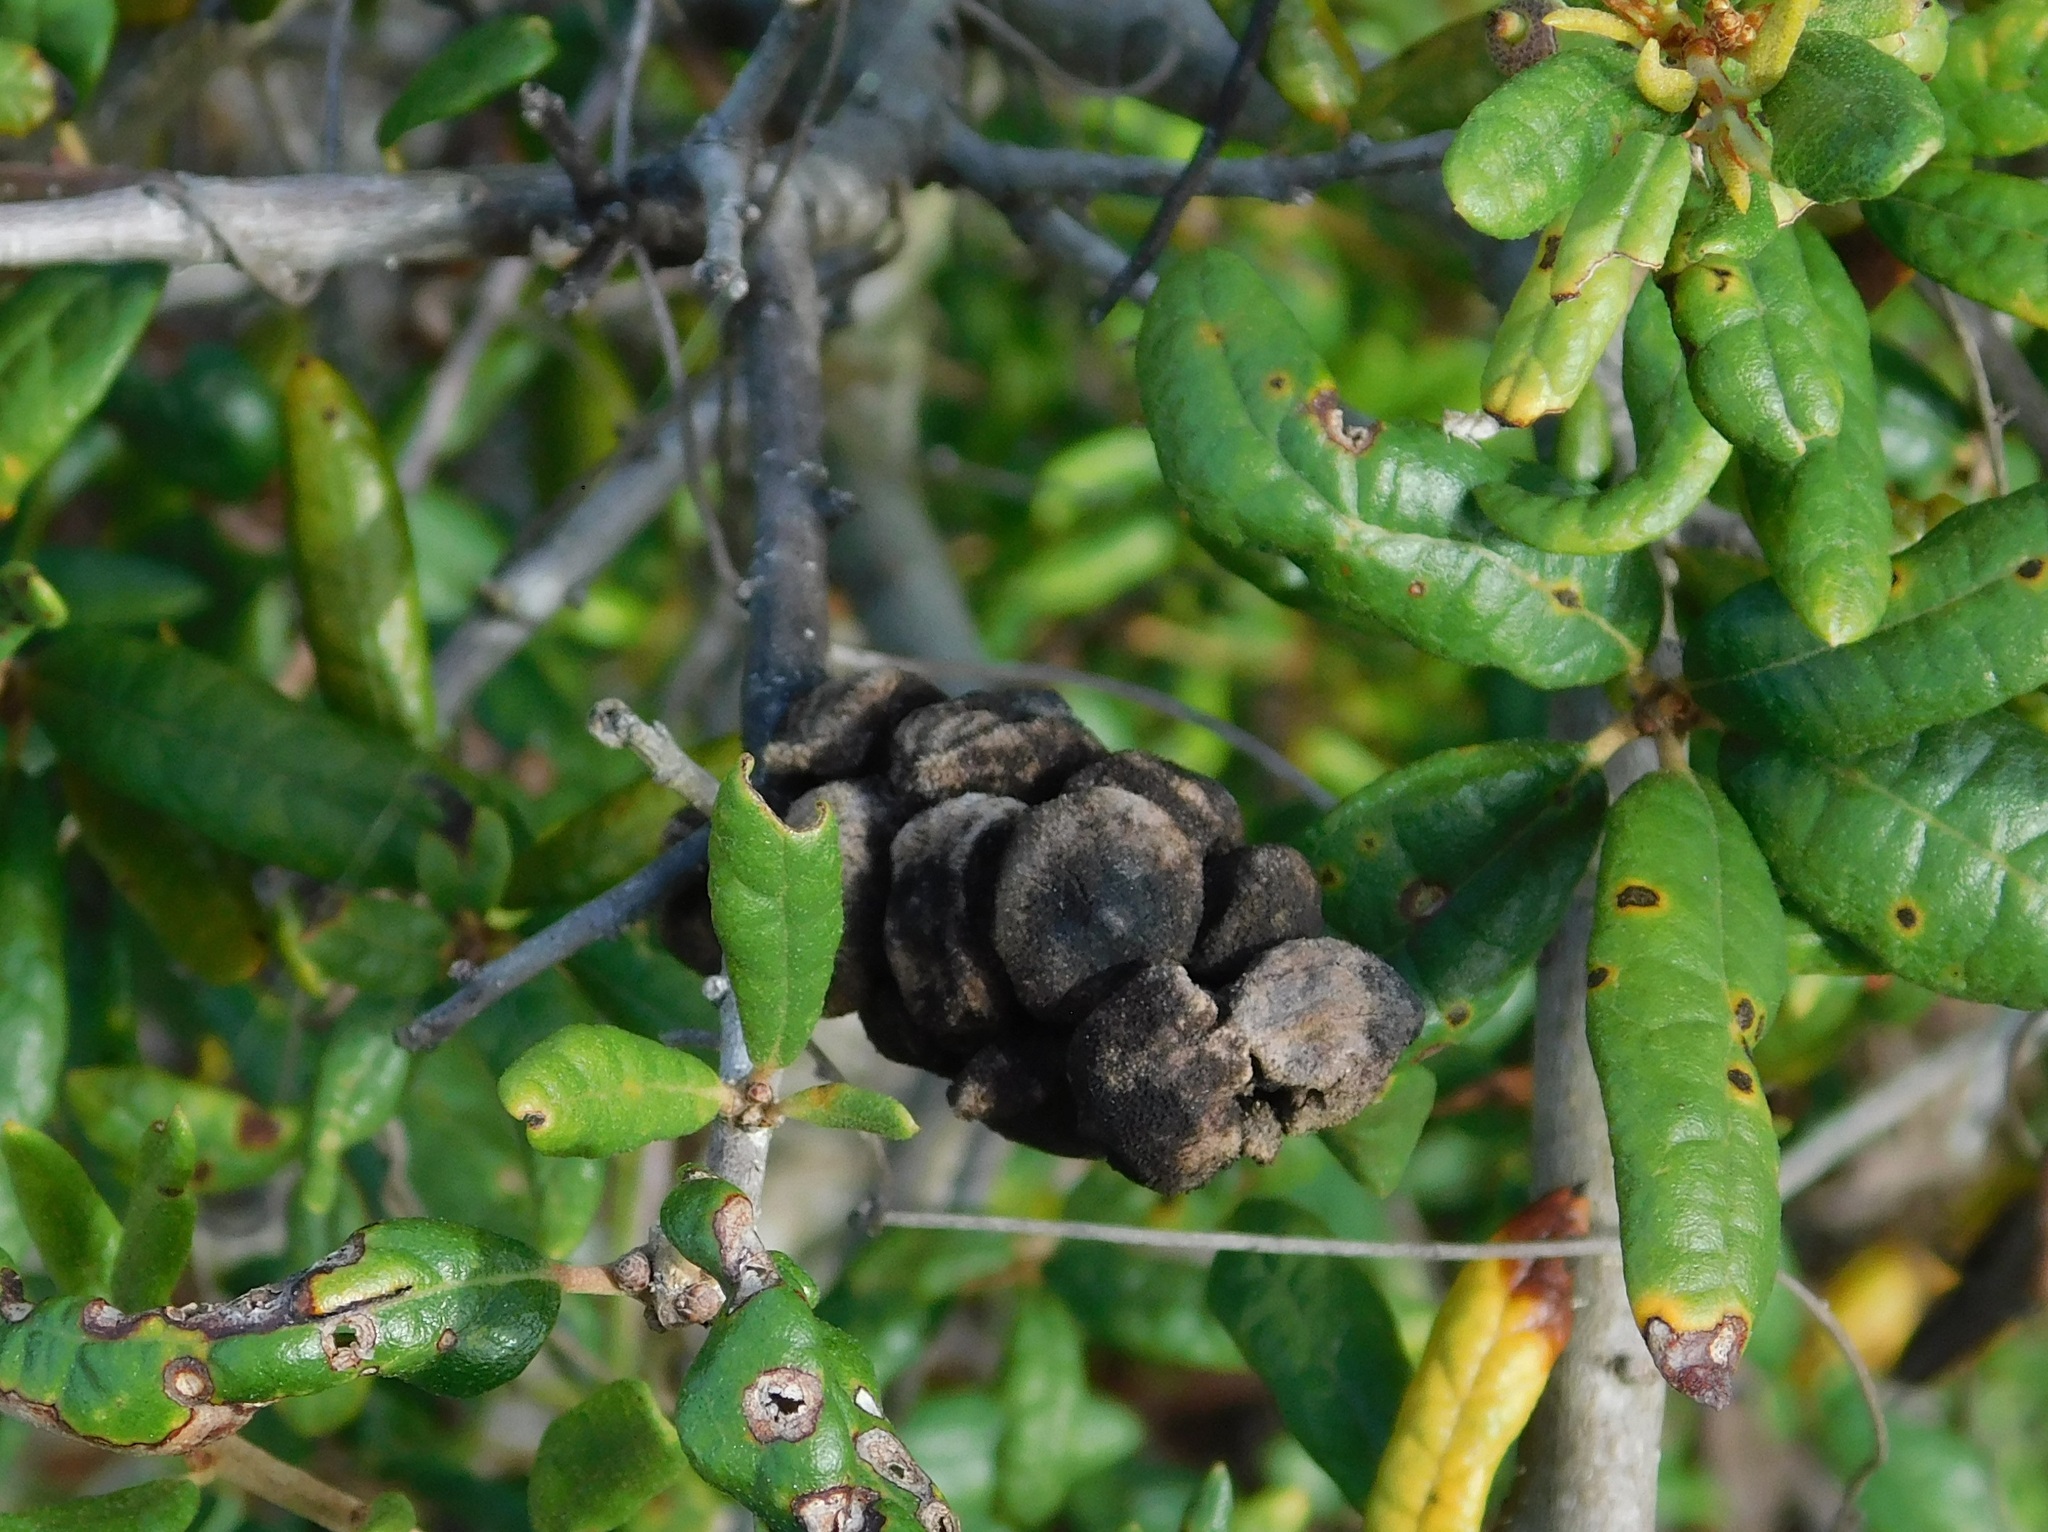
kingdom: Animalia
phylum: Arthropoda
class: Insecta
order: Hymenoptera
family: Cynipidae
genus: Disholcaspis
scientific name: Disholcaspis
